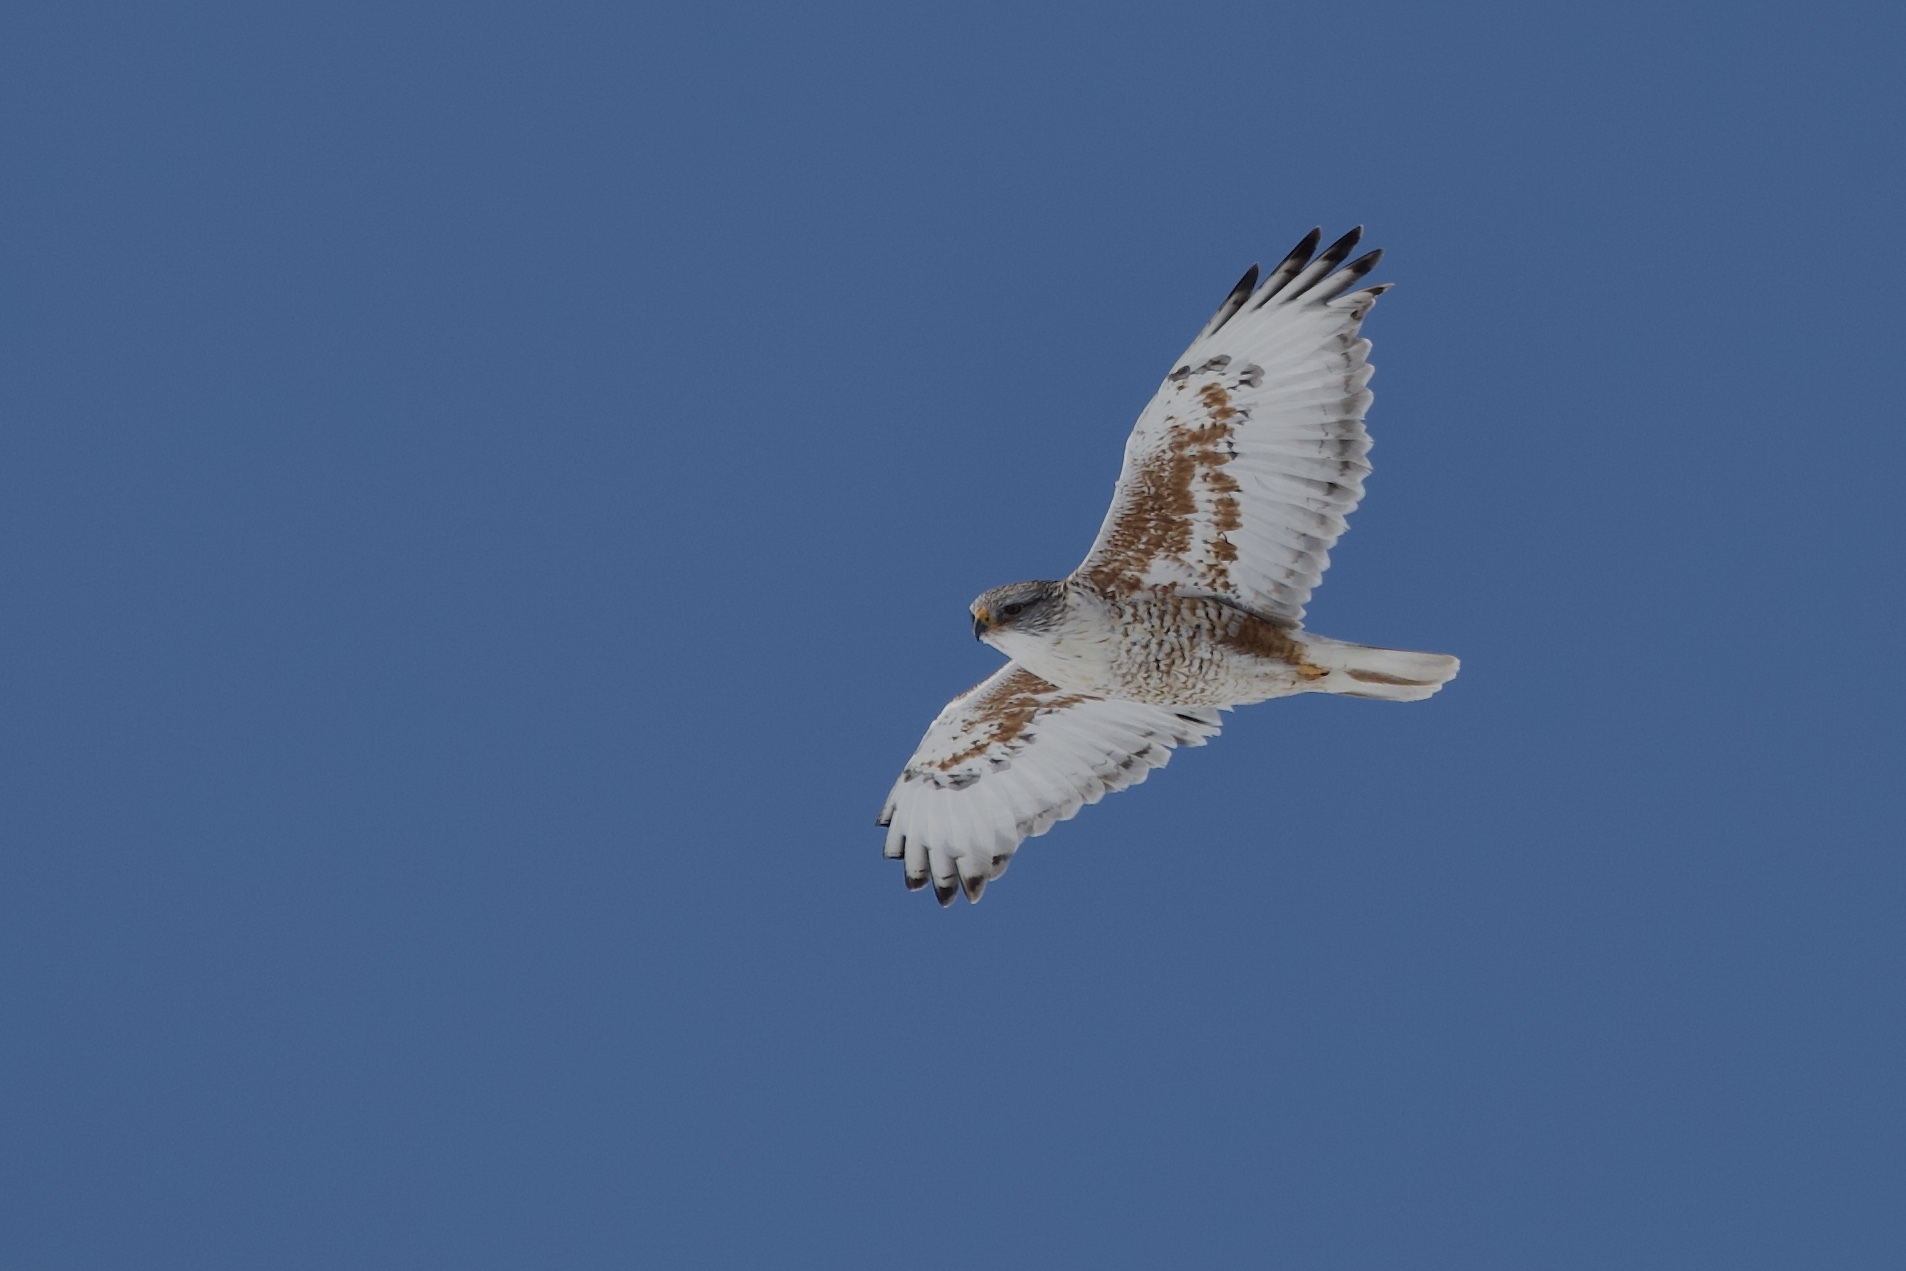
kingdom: Animalia
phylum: Chordata
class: Aves
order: Accipitriformes
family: Accipitridae
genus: Buteo
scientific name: Buteo regalis
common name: Ferruginous hawk
